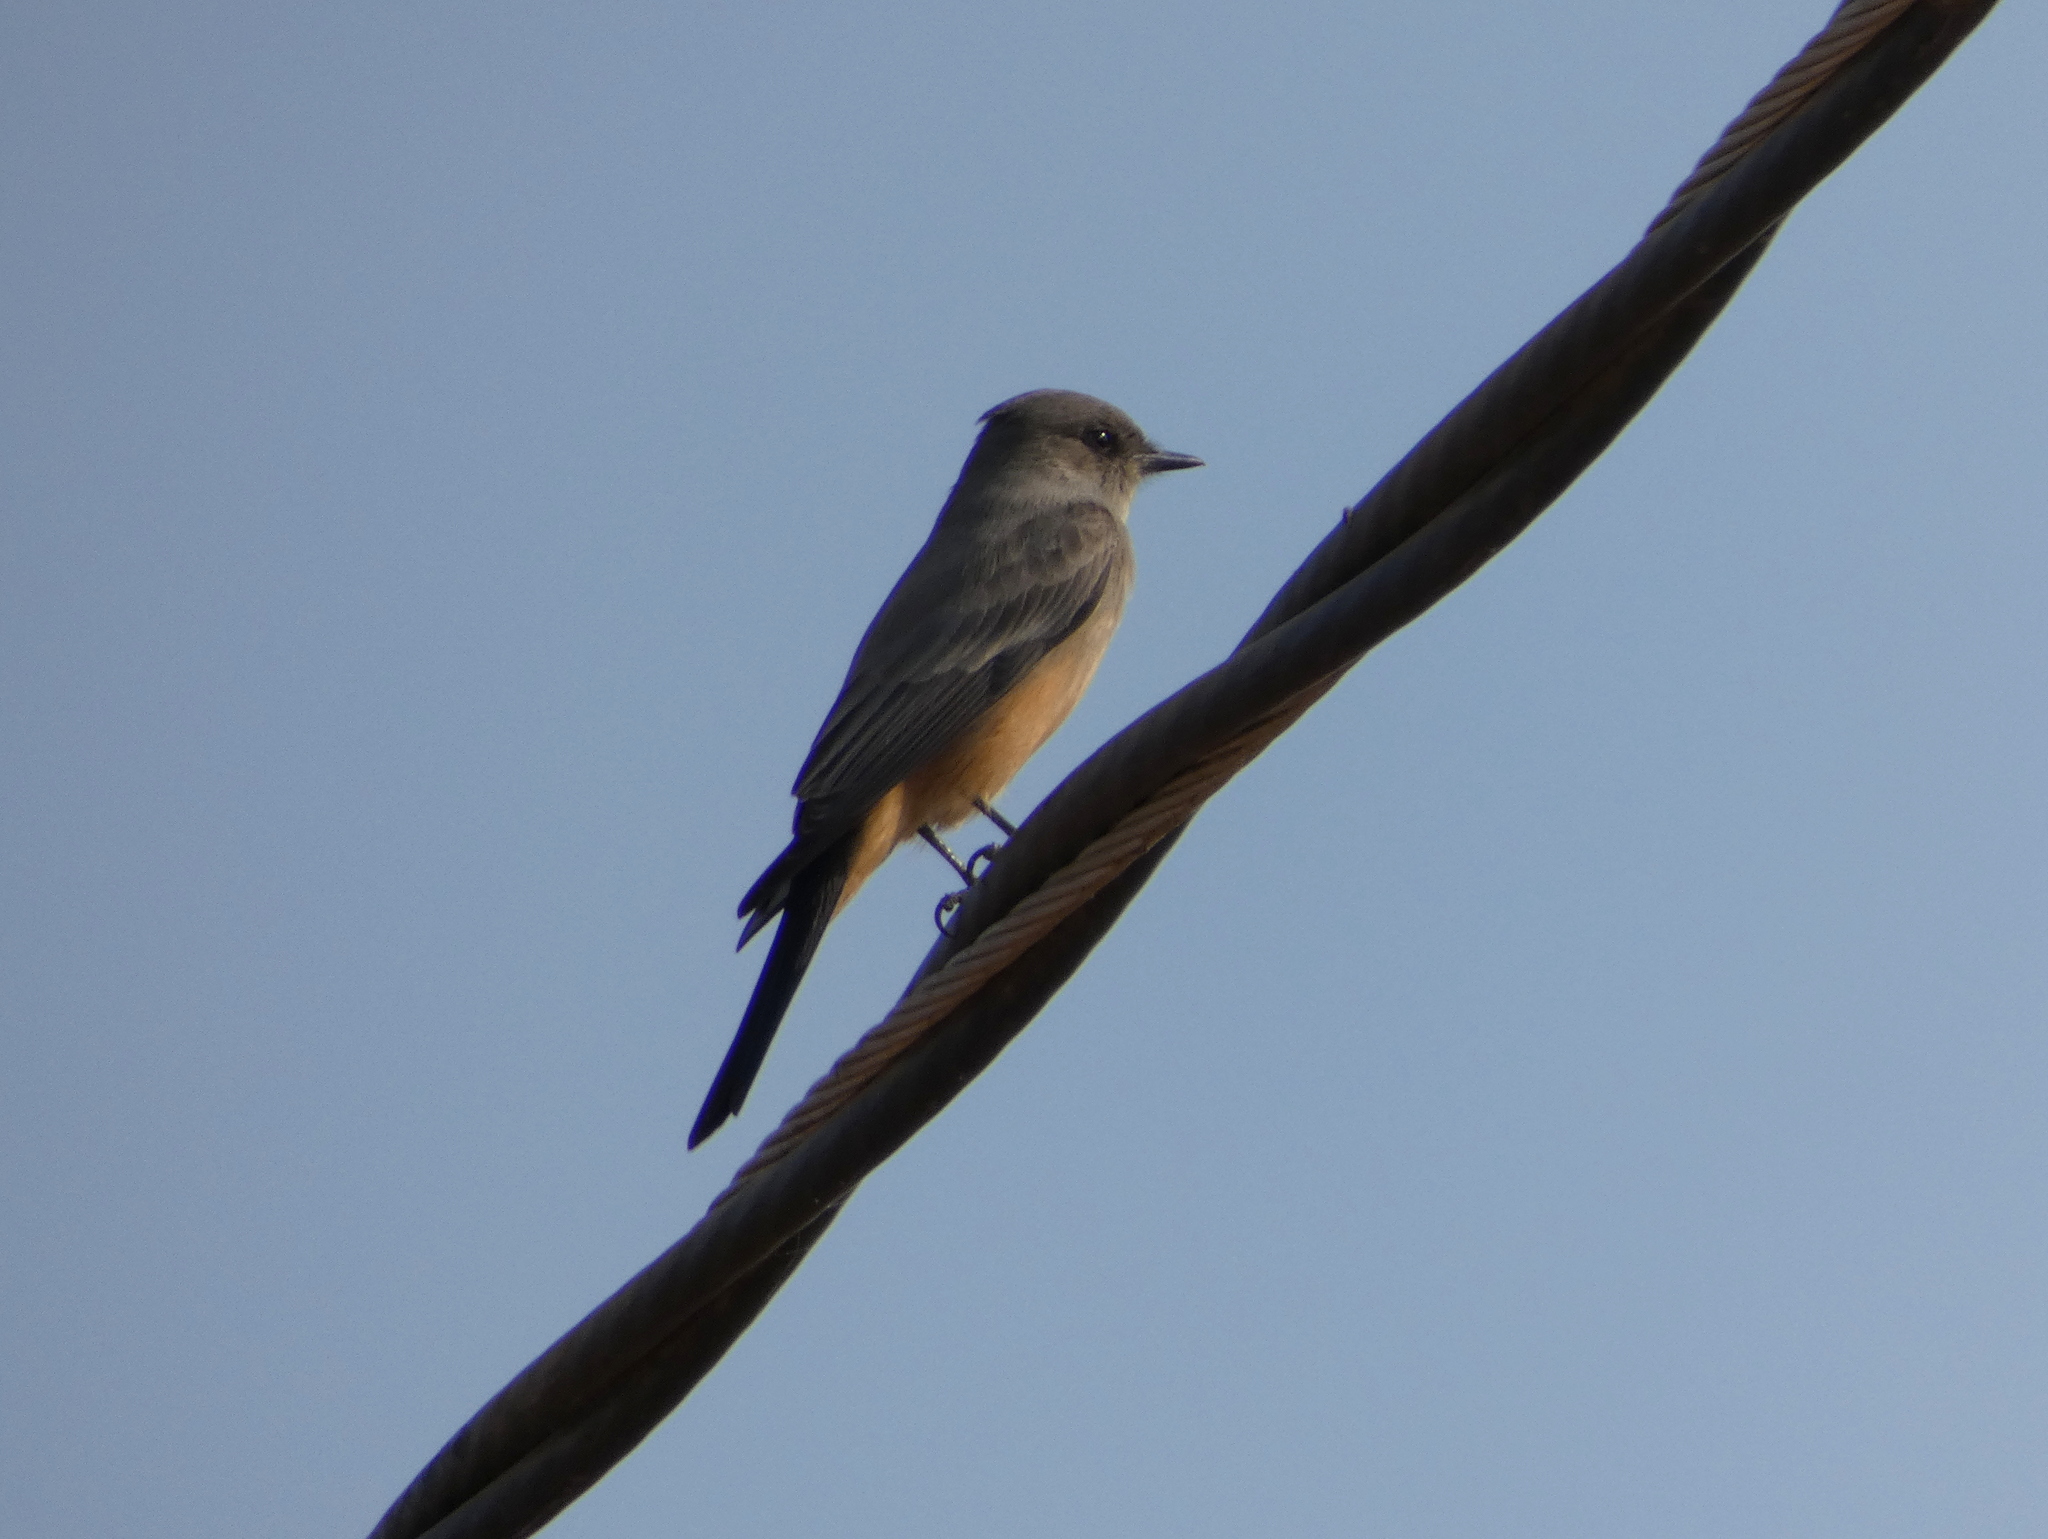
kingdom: Animalia
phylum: Chordata
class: Aves
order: Passeriformes
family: Tyrannidae
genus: Sayornis
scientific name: Sayornis saya
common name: Say's phoebe
